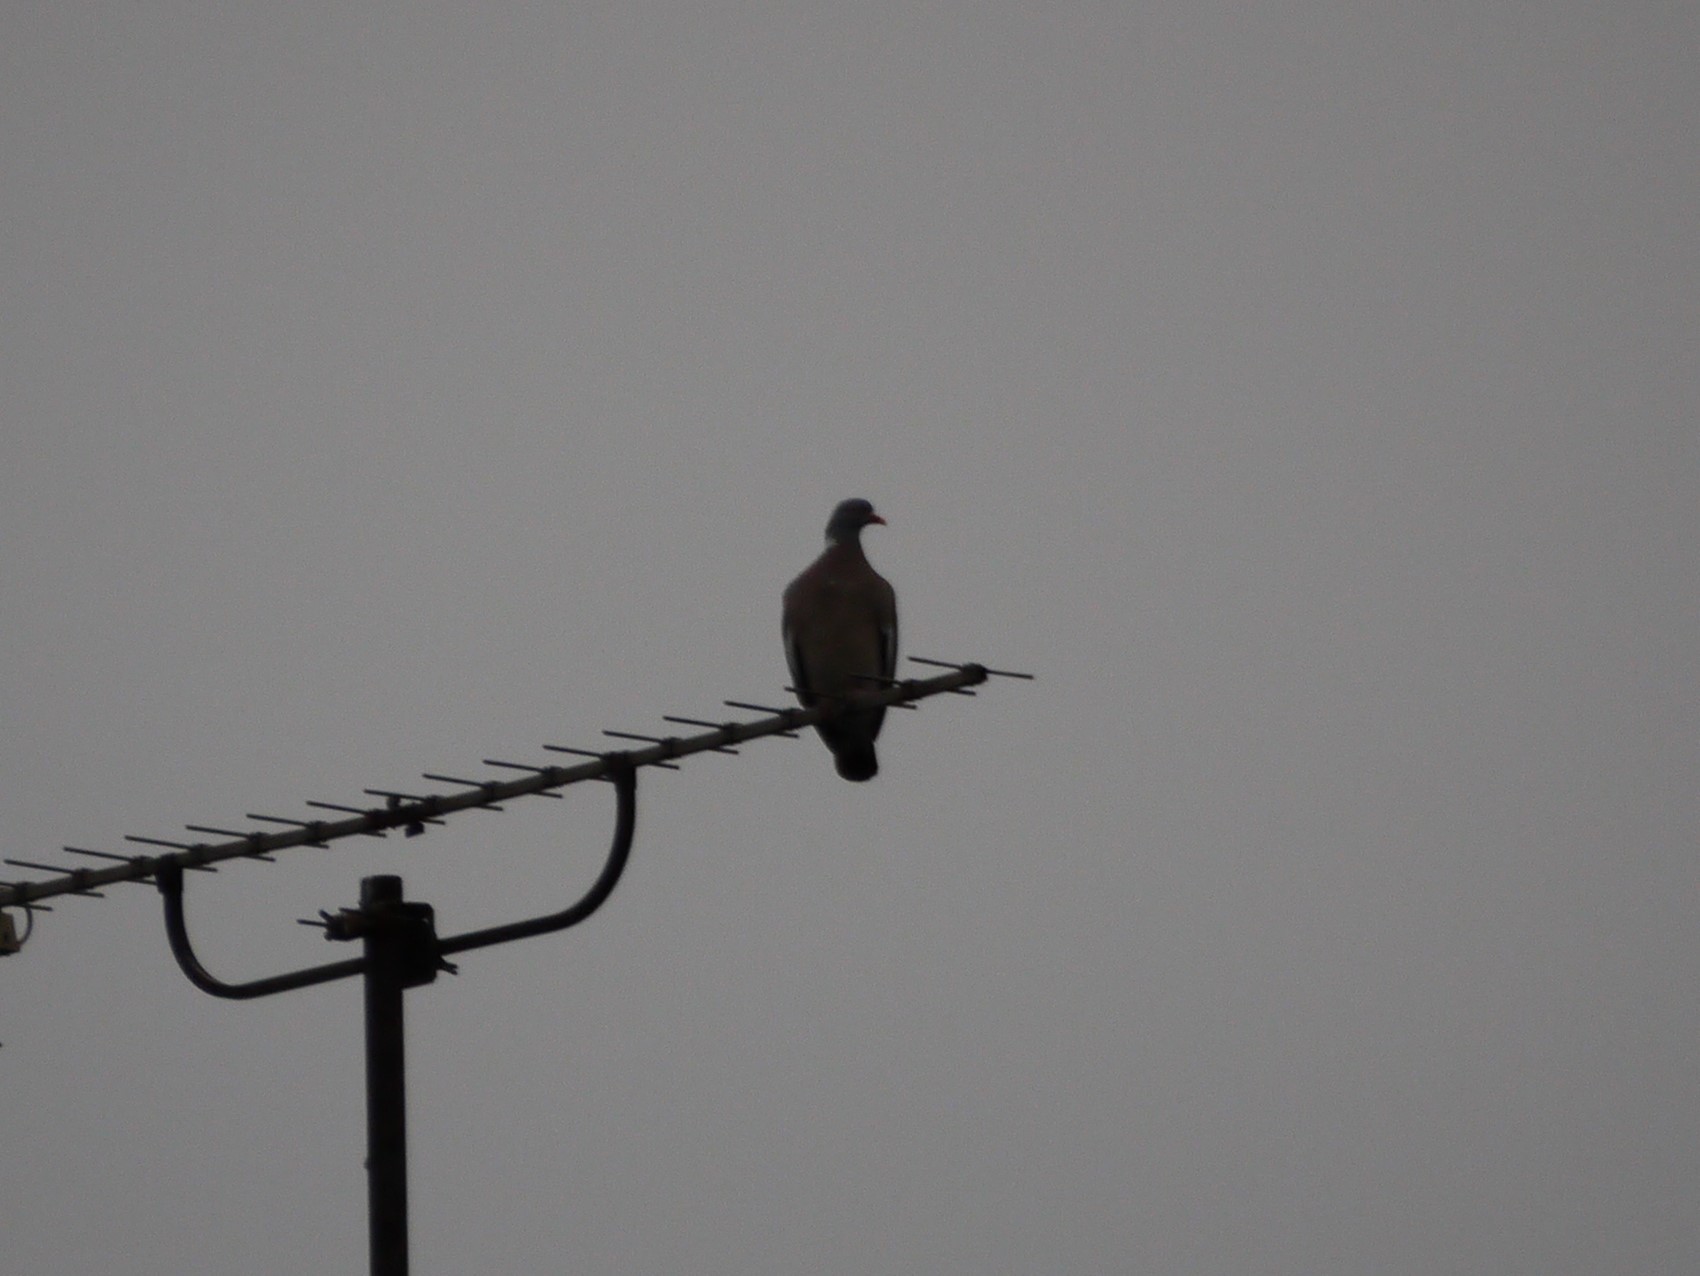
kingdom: Animalia
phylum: Chordata
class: Aves
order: Columbiformes
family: Columbidae
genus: Columba
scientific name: Columba palumbus
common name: Common wood pigeon
